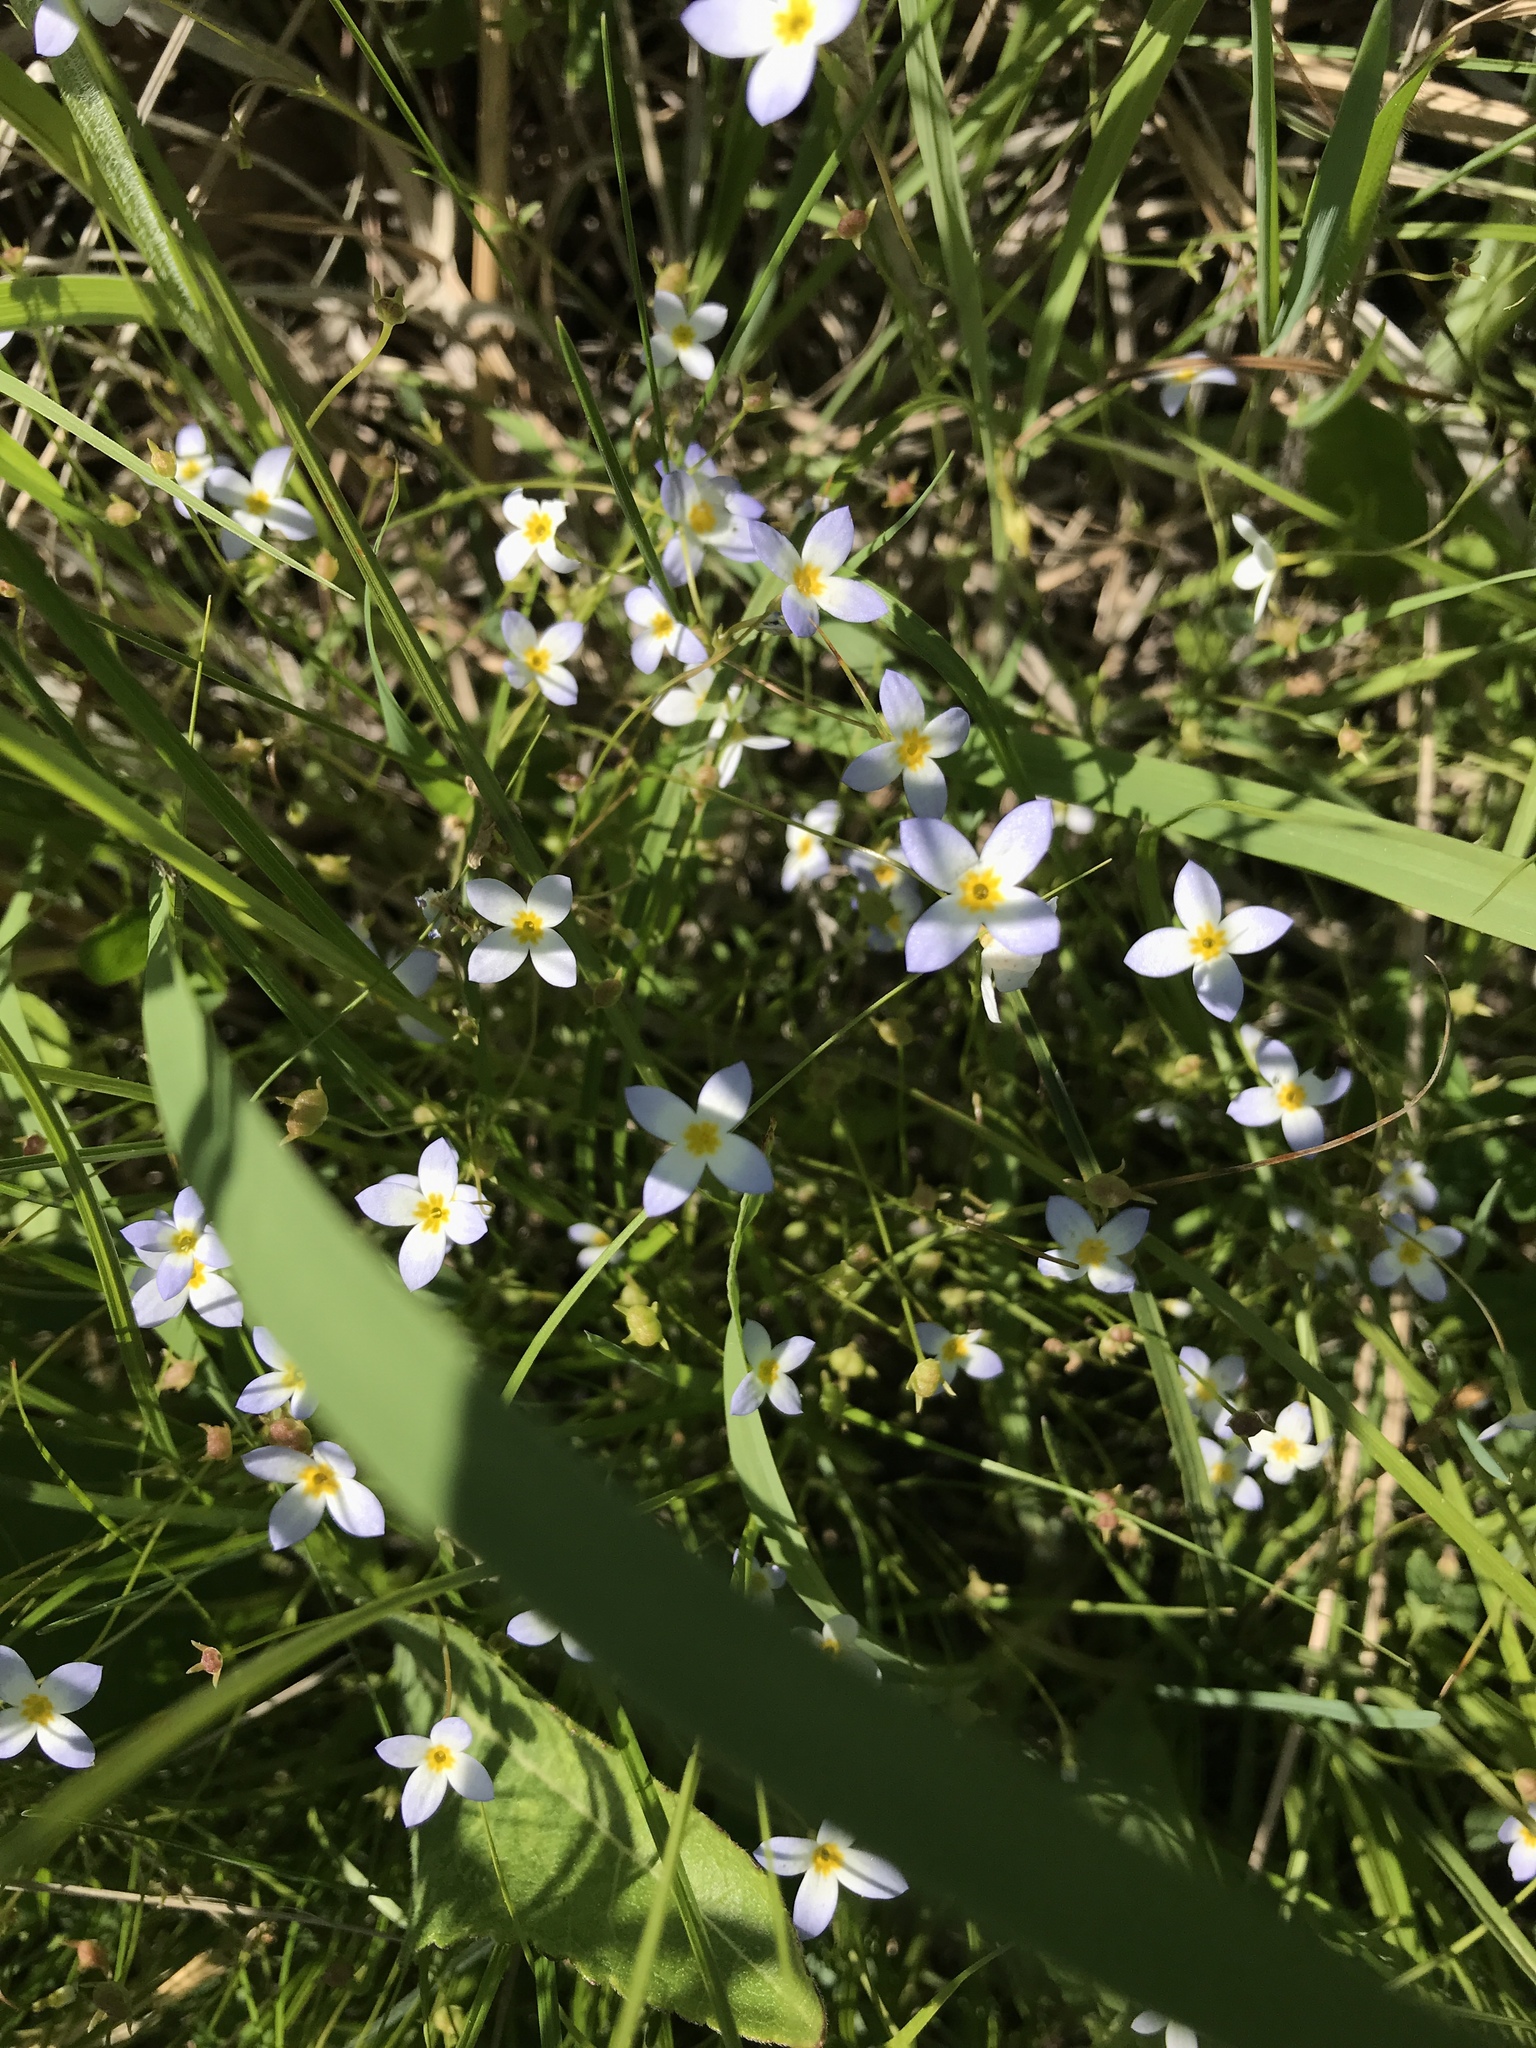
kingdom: Plantae
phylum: Tracheophyta
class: Magnoliopsida
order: Gentianales
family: Rubiaceae
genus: Houstonia
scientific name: Houstonia caerulea
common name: Bluets
